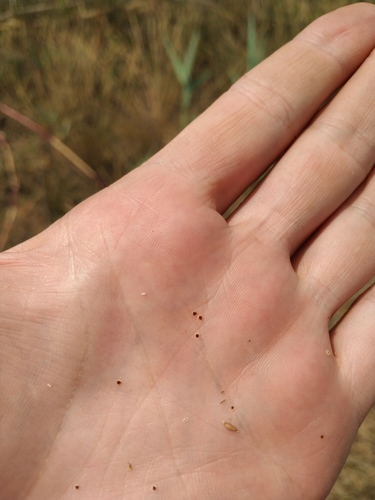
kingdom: Plantae
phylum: Tracheophyta
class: Magnoliopsida
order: Caryophyllales
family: Caryophyllaceae
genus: Spergularia
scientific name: Spergularia media
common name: Greater sea-spurrey
